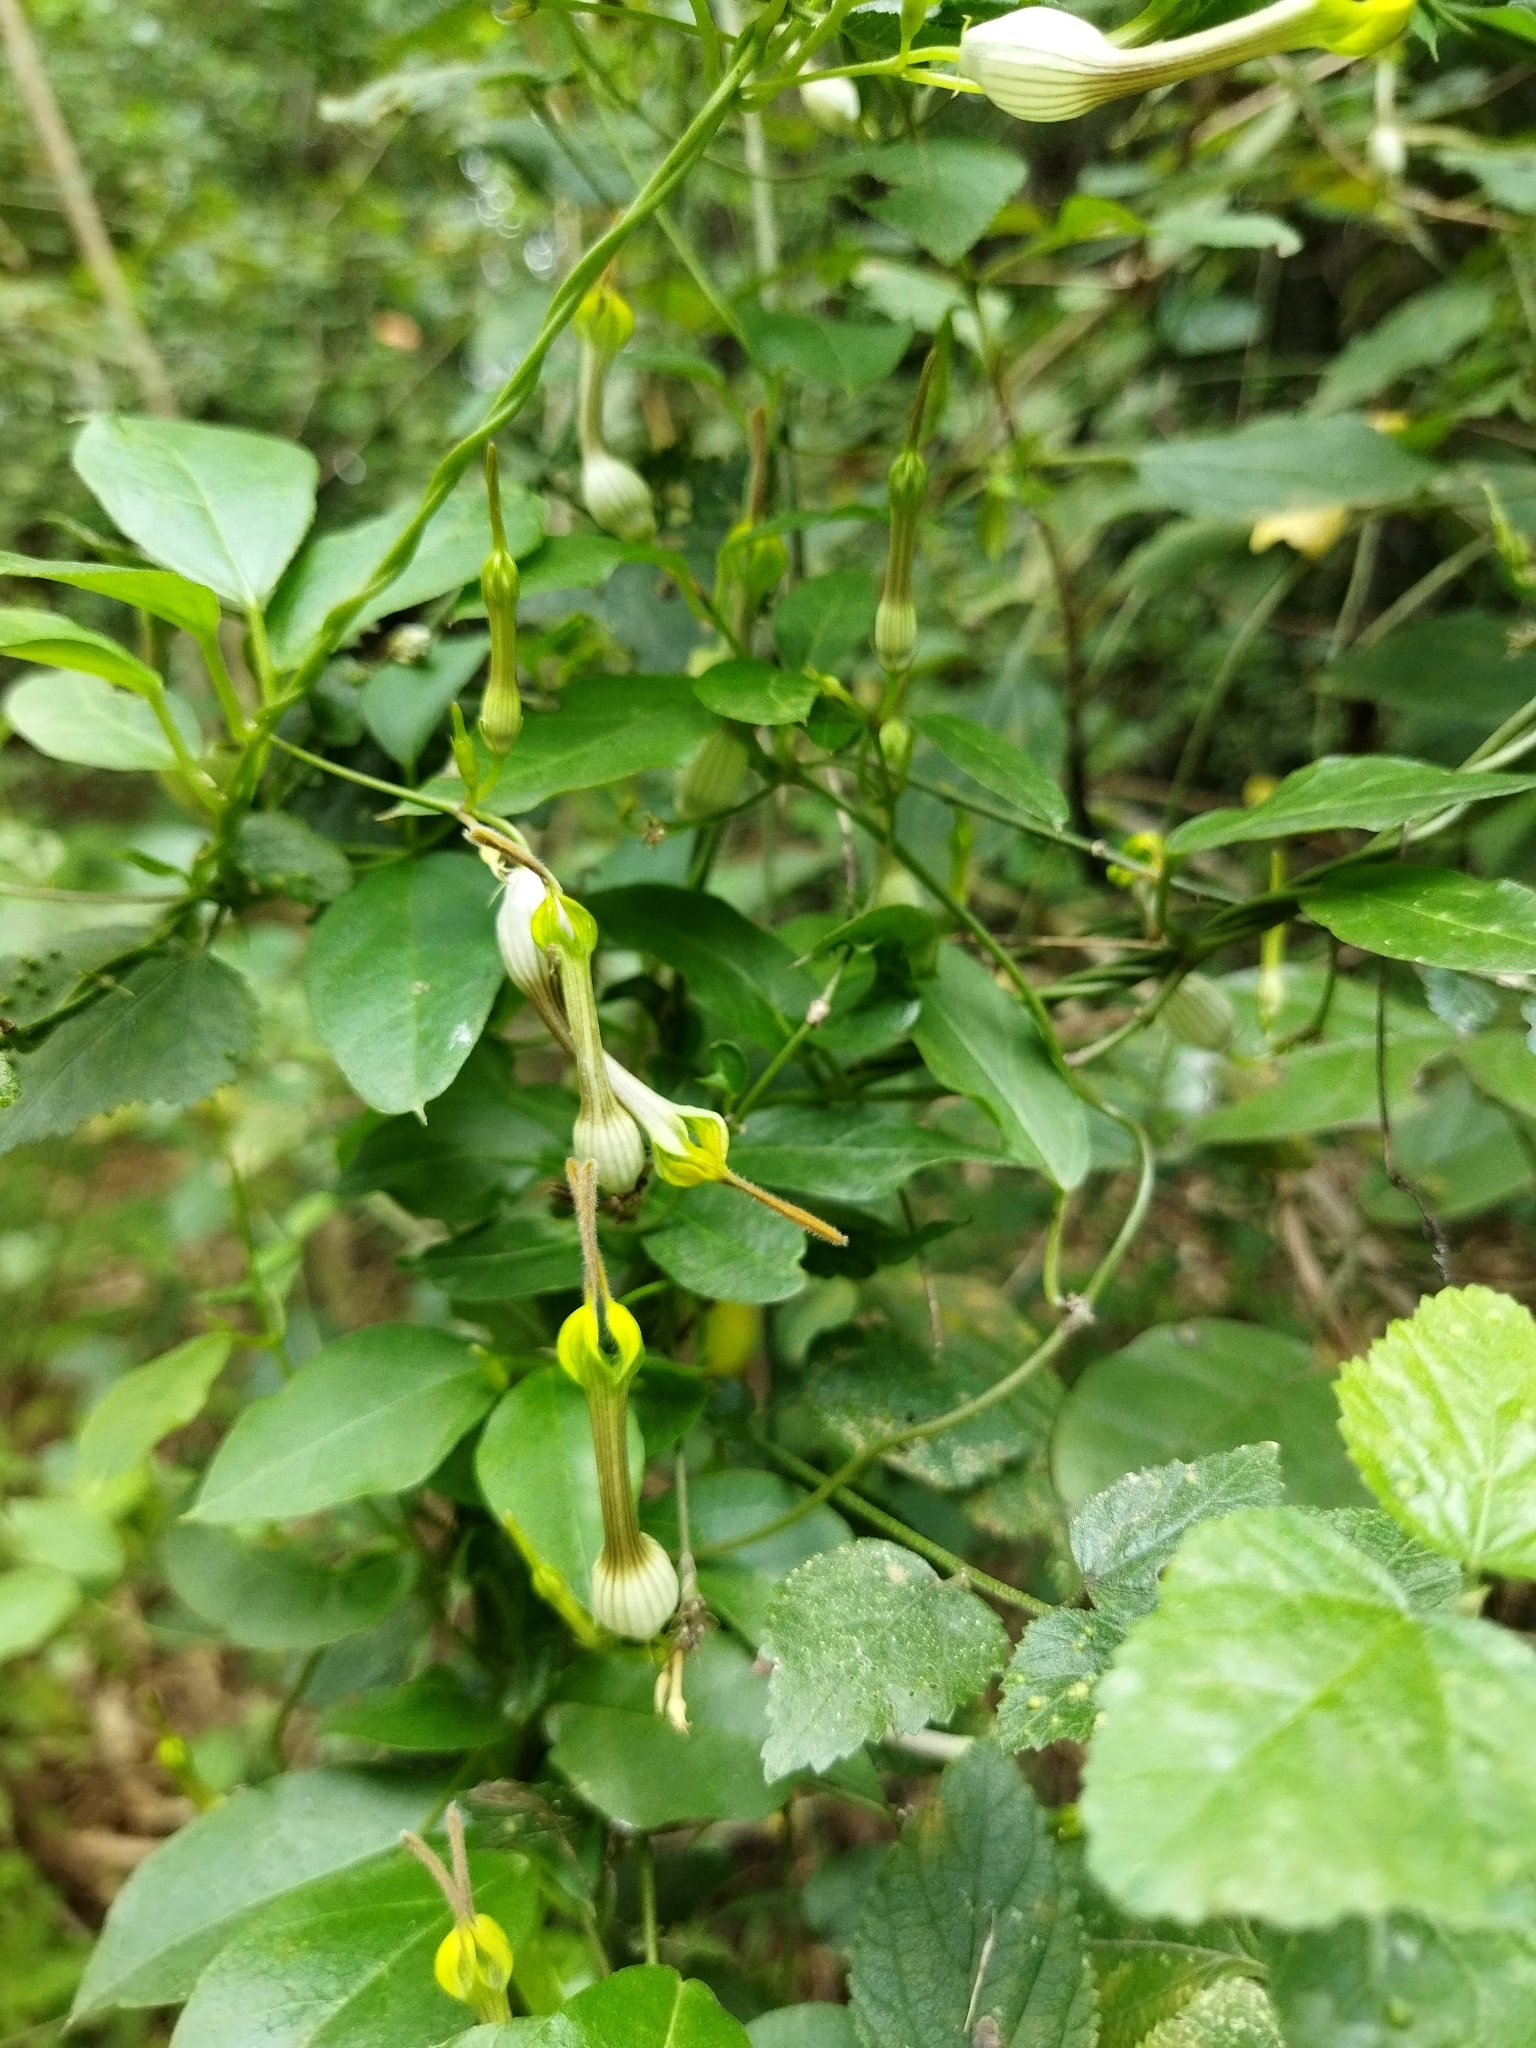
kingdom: Plantae
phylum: Tracheophyta
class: Magnoliopsida
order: Gentianales
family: Apocynaceae
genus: Ceropegia
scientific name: Ceropegia candelabrum
